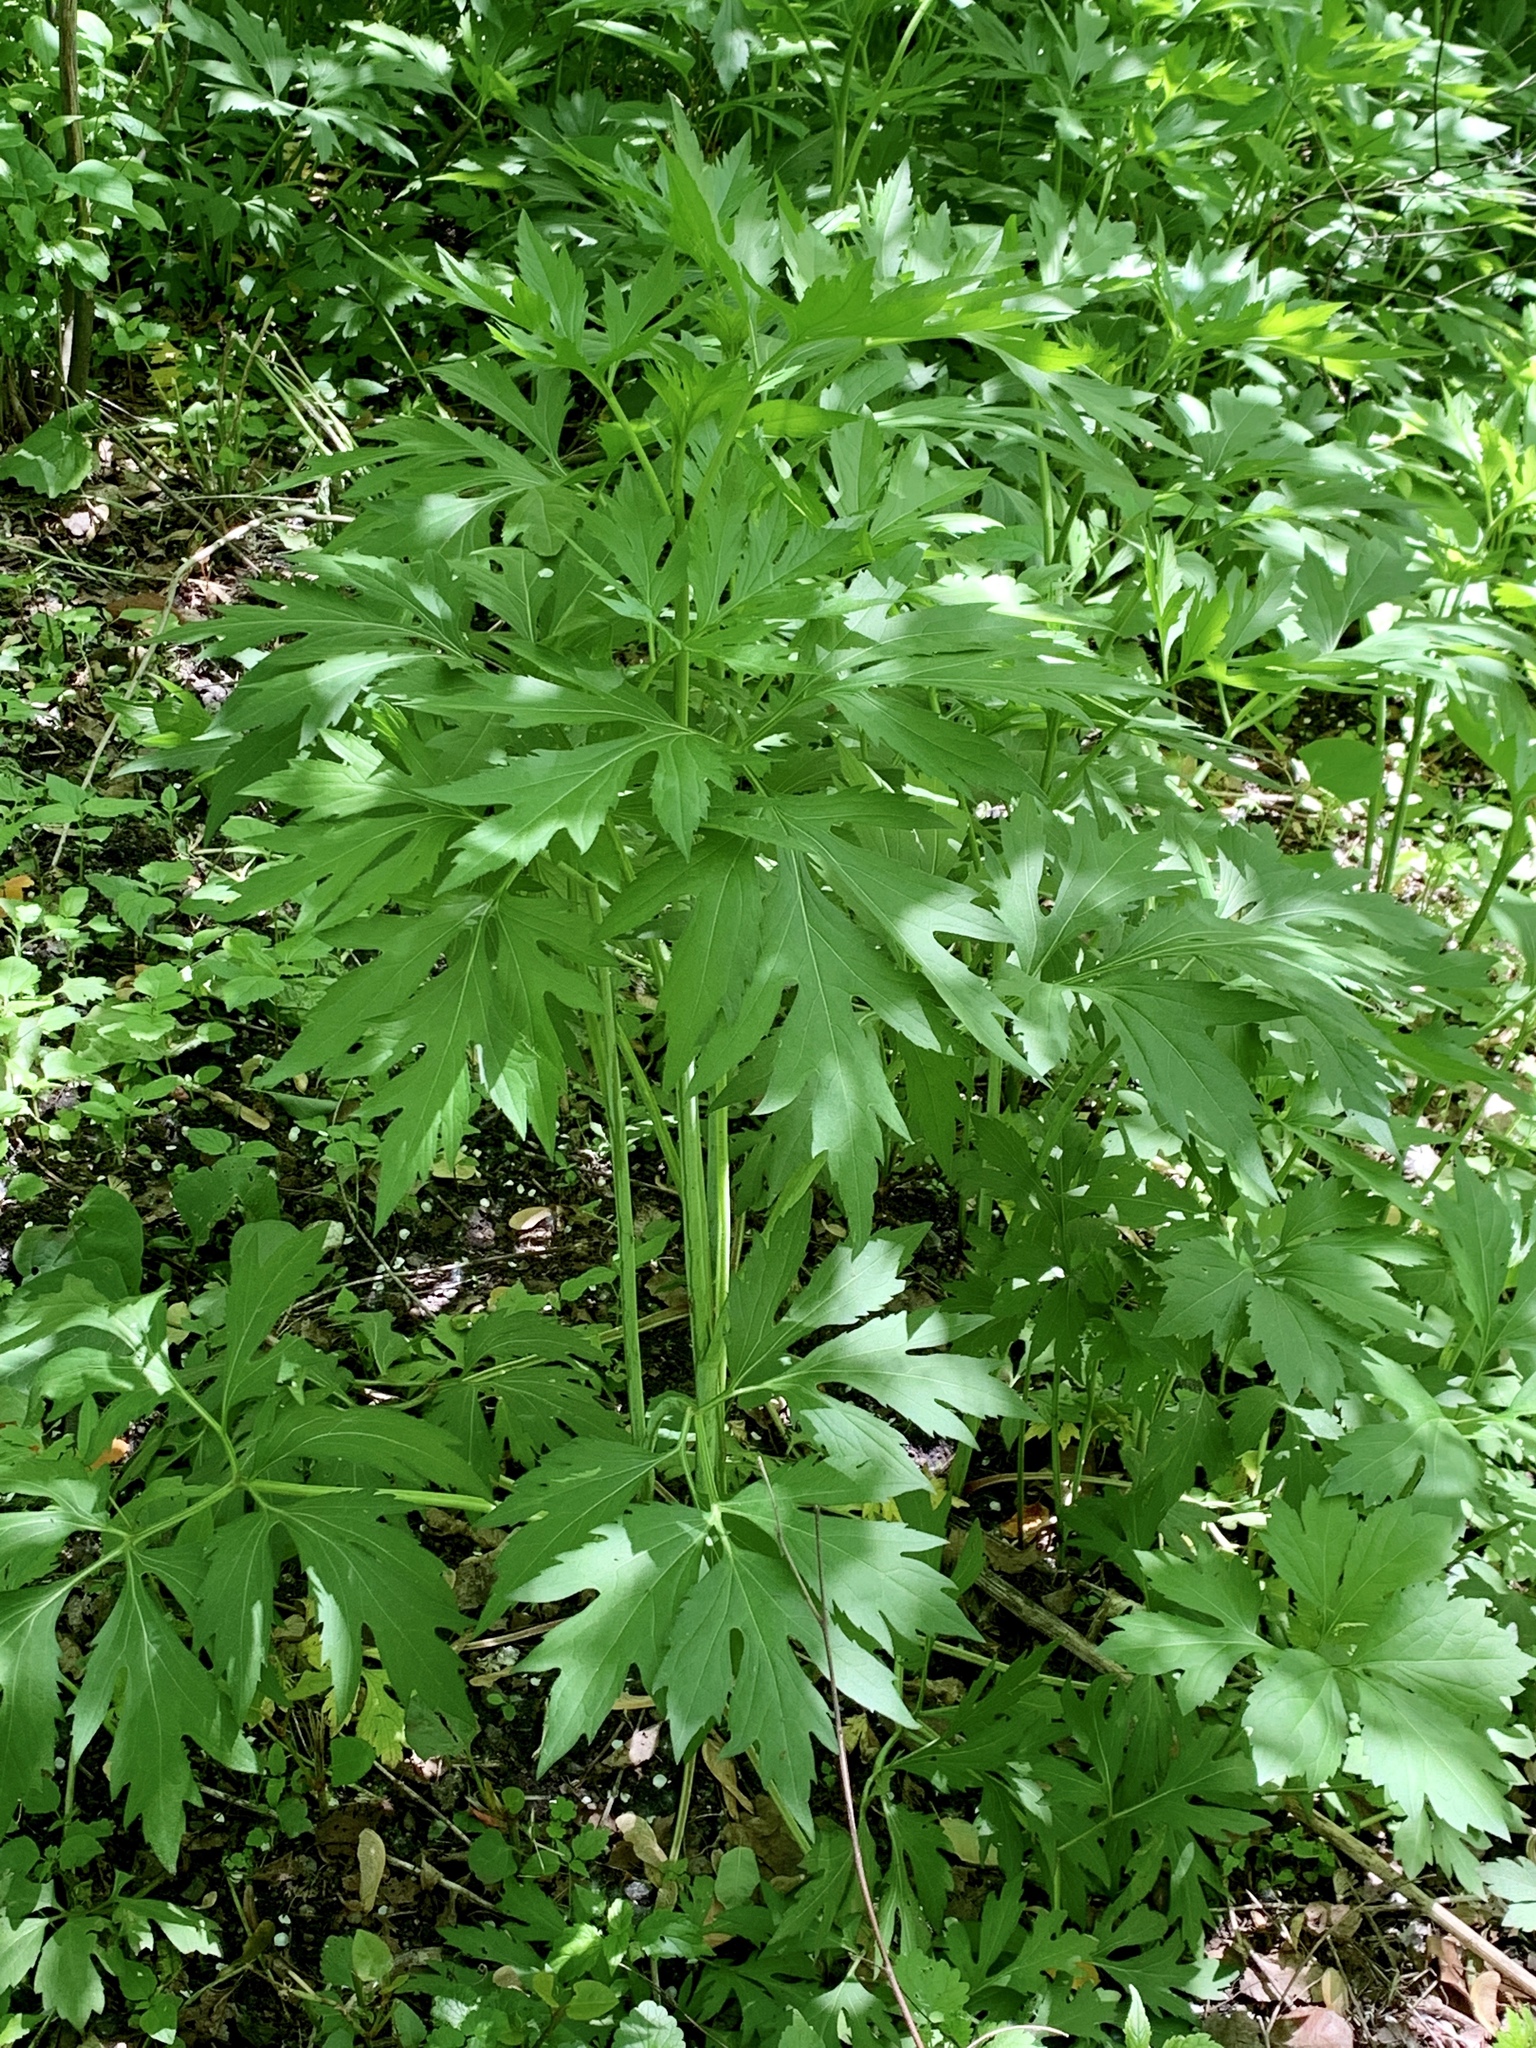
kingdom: Plantae
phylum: Tracheophyta
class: Magnoliopsida
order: Asterales
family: Asteraceae
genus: Rudbeckia
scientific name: Rudbeckia laciniata
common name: Coneflower
